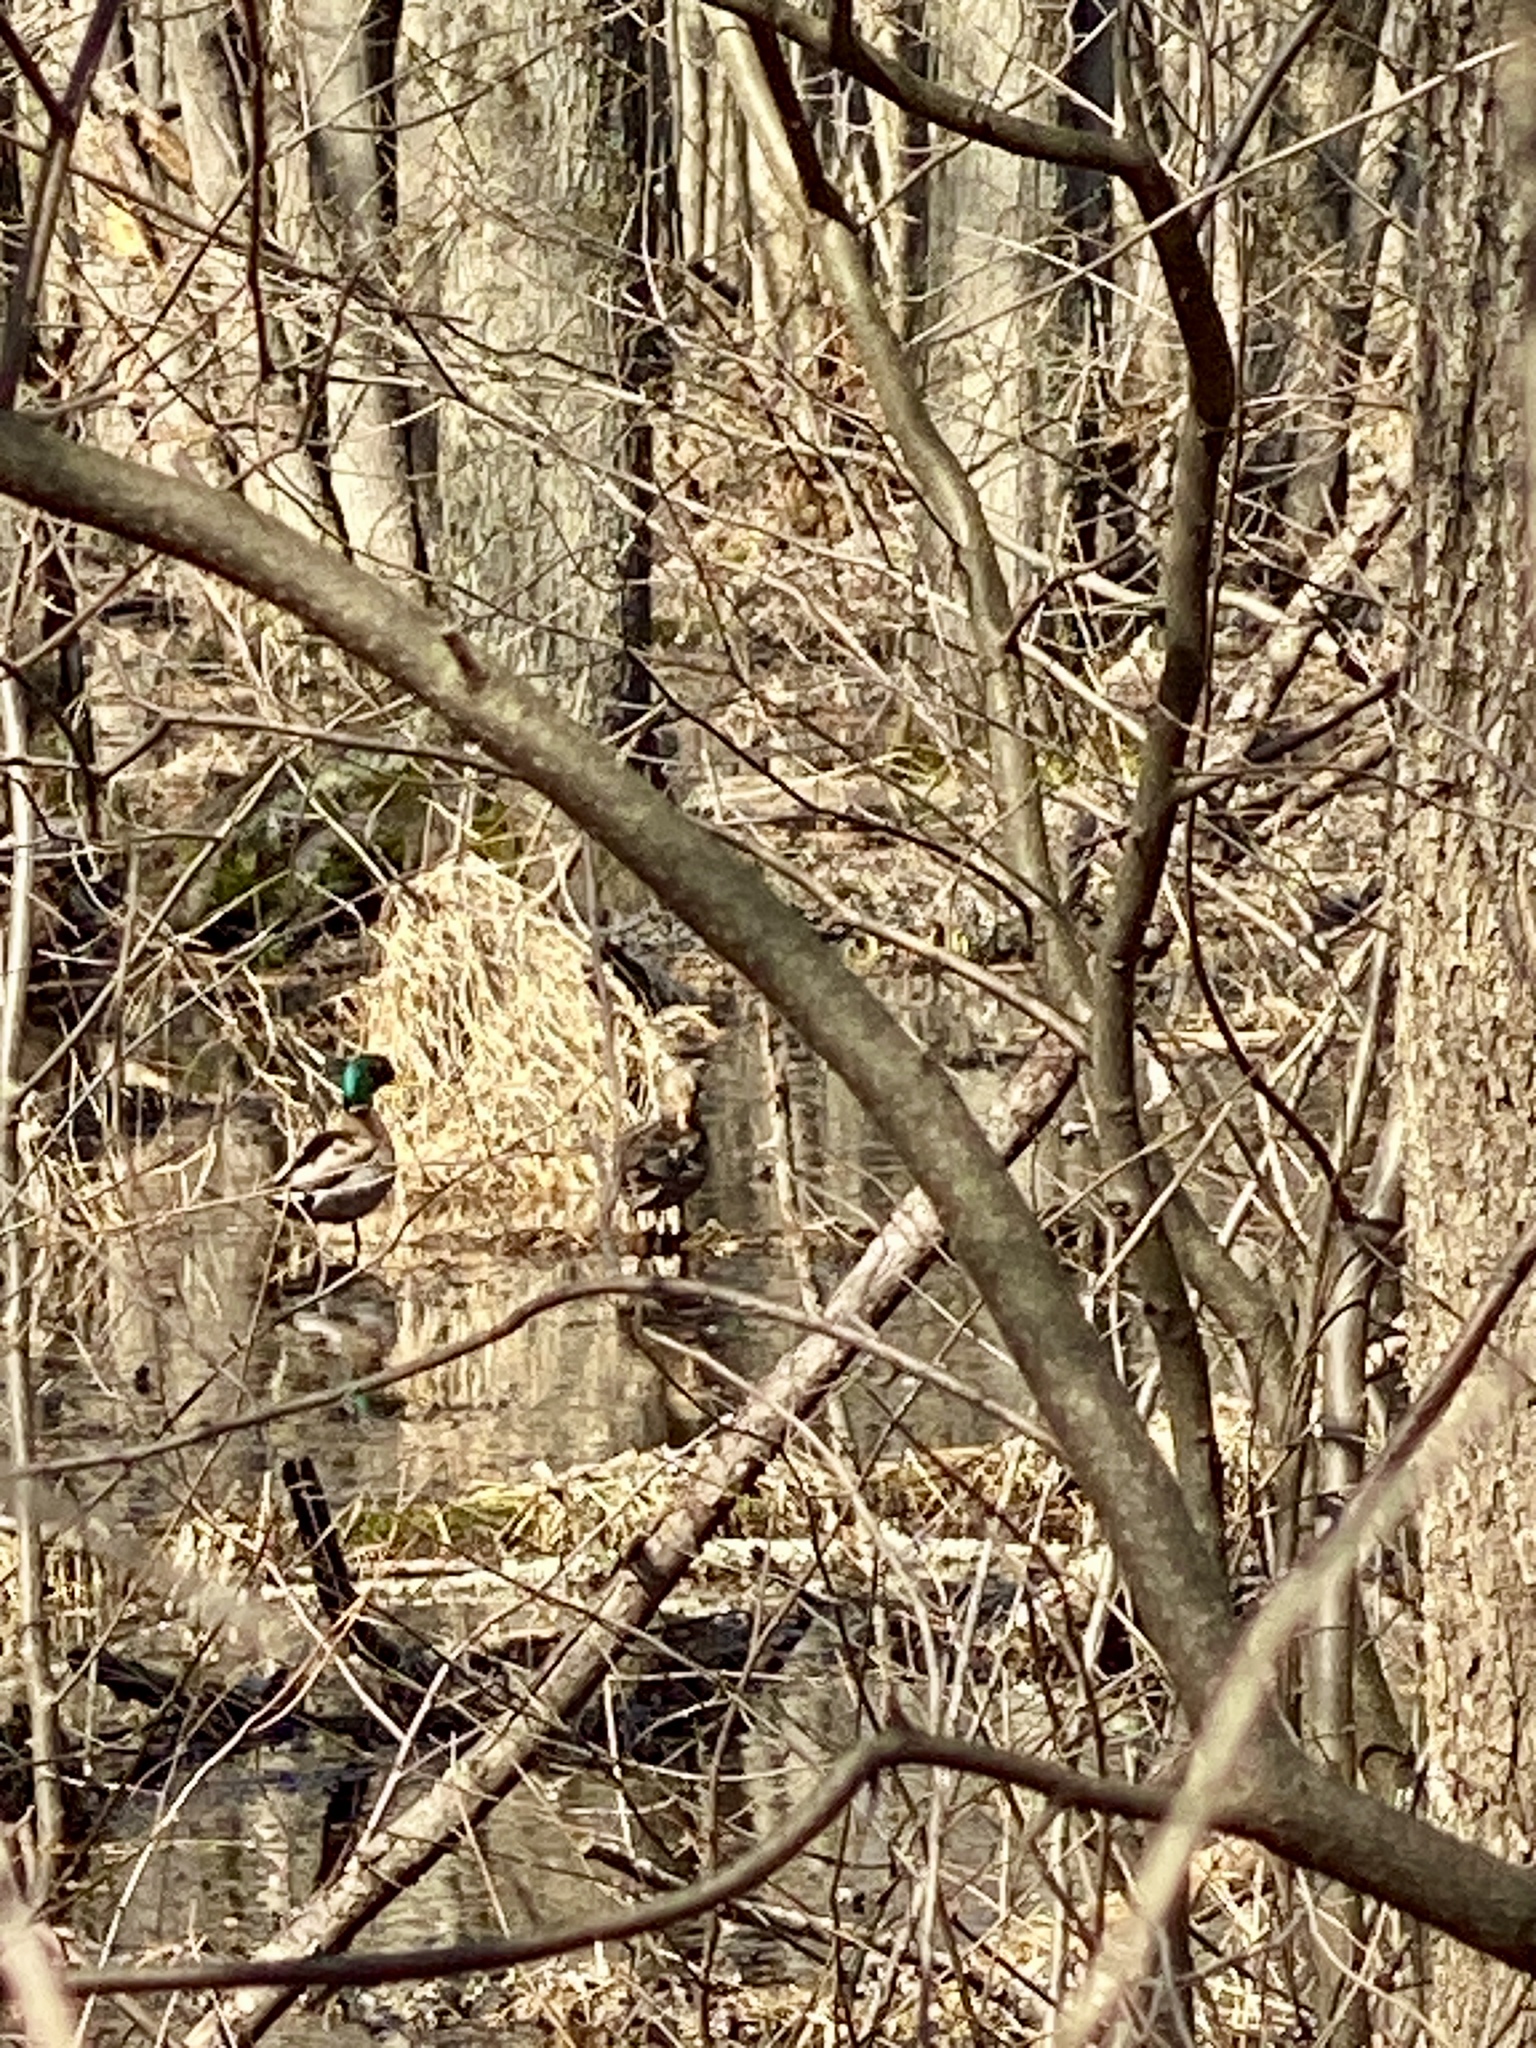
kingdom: Animalia
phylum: Chordata
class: Aves
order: Anseriformes
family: Anatidae
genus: Anas
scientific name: Anas platyrhynchos
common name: Mallard
